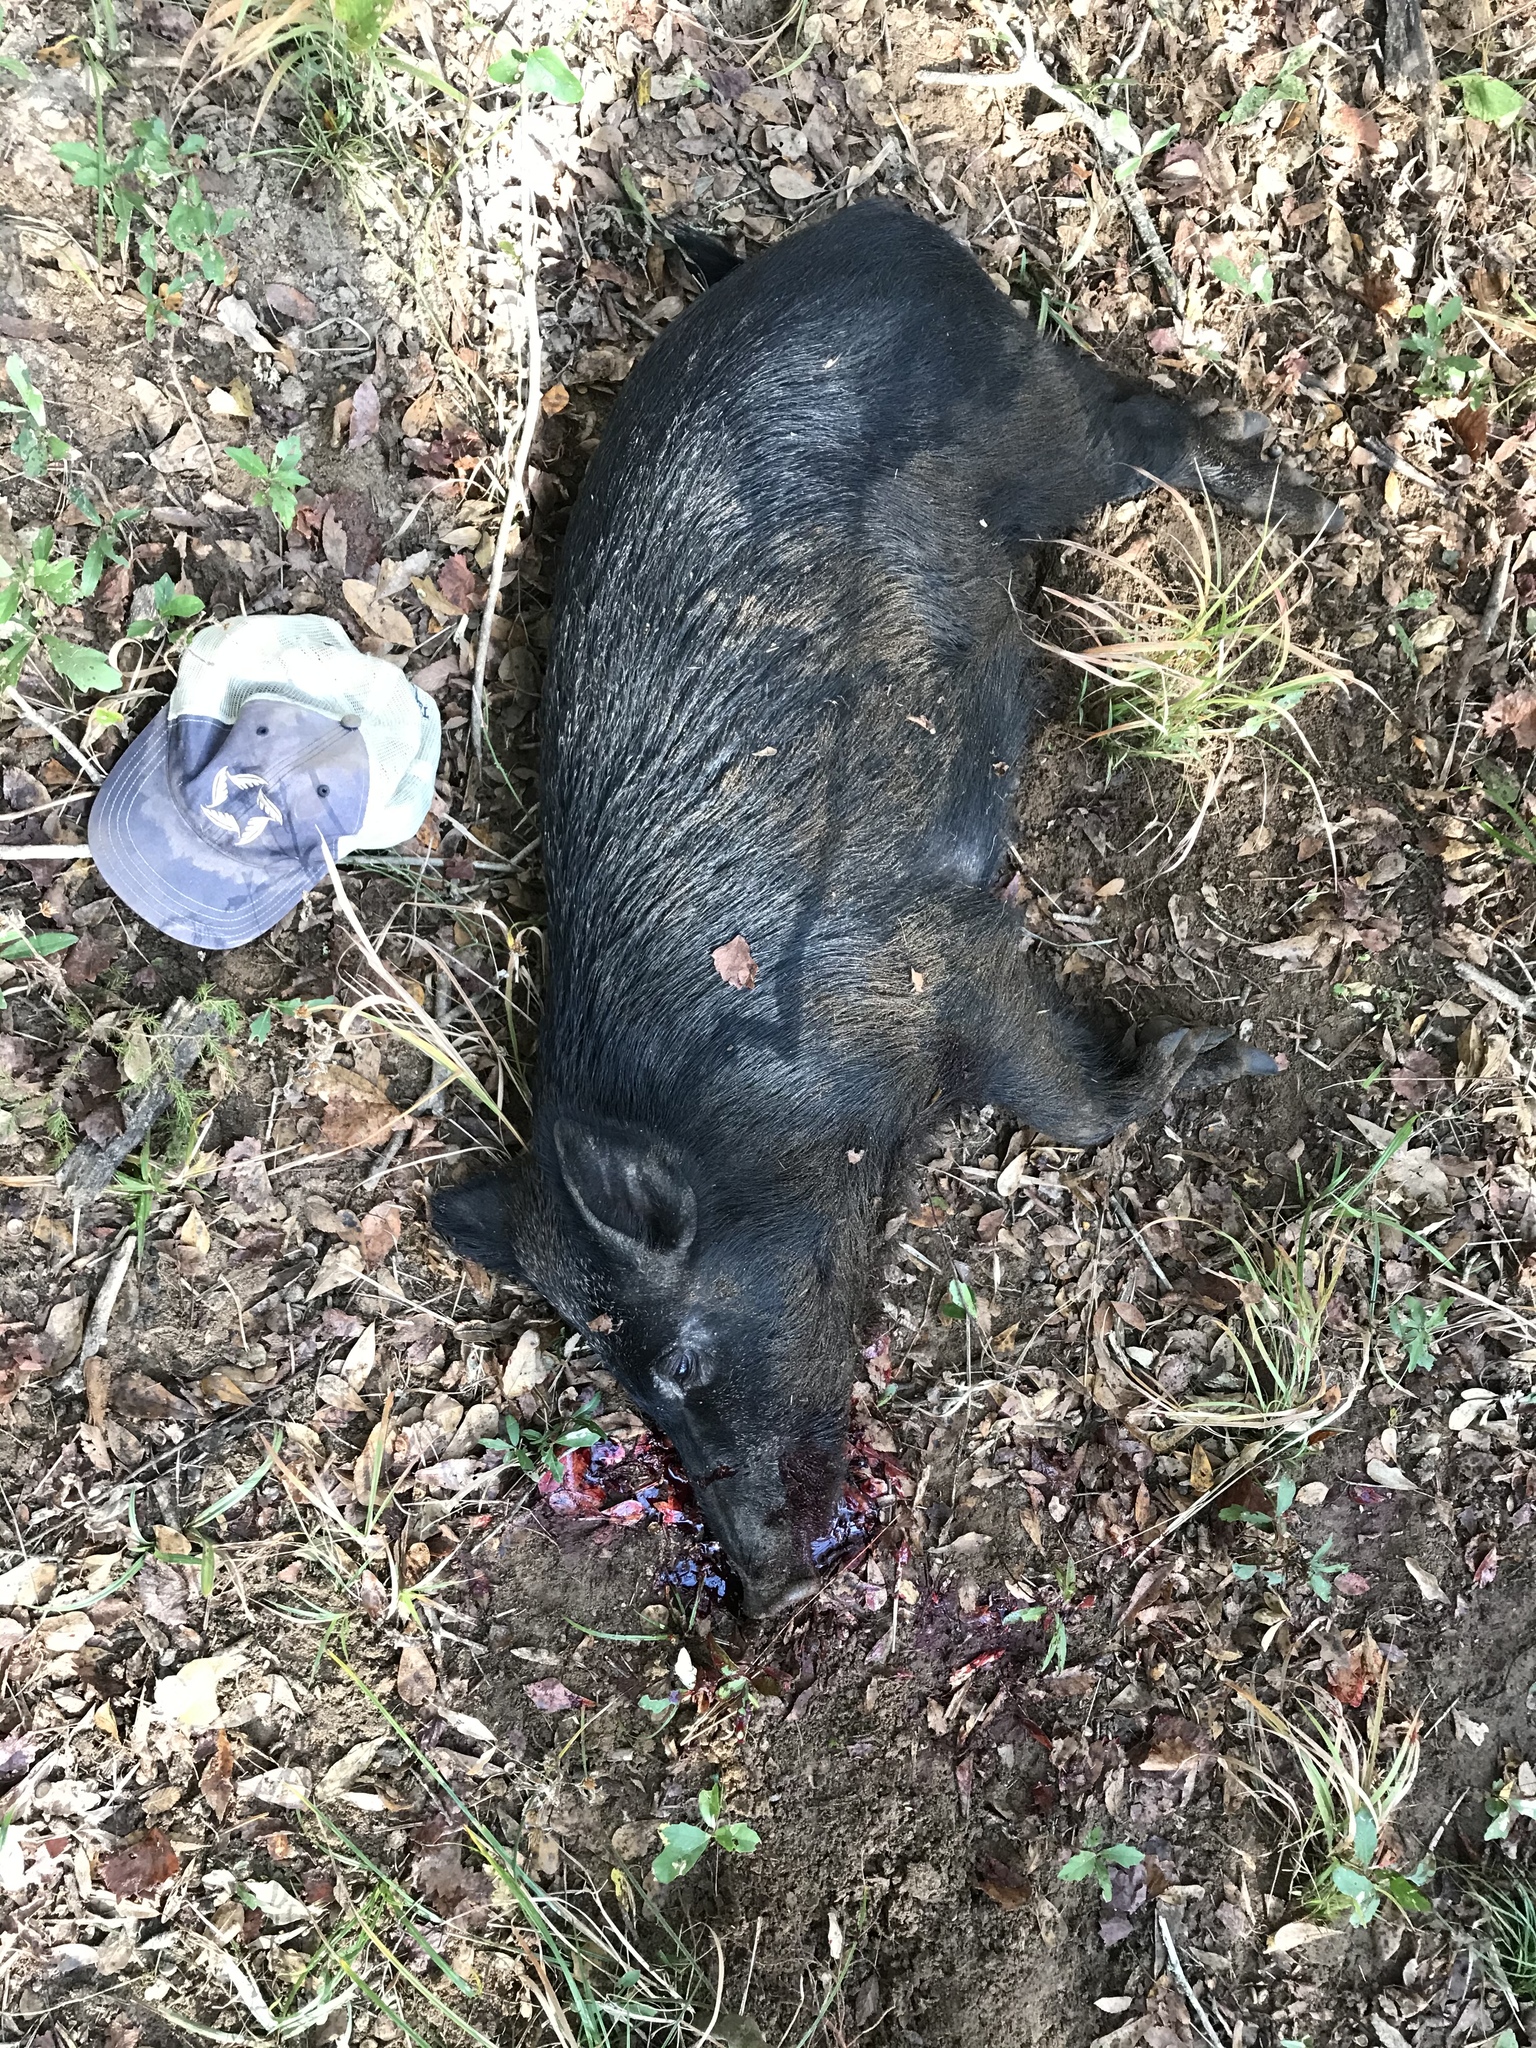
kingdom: Animalia
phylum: Chordata
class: Mammalia
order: Artiodactyla
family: Suidae
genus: Sus
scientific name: Sus scrofa
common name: Wild boar
